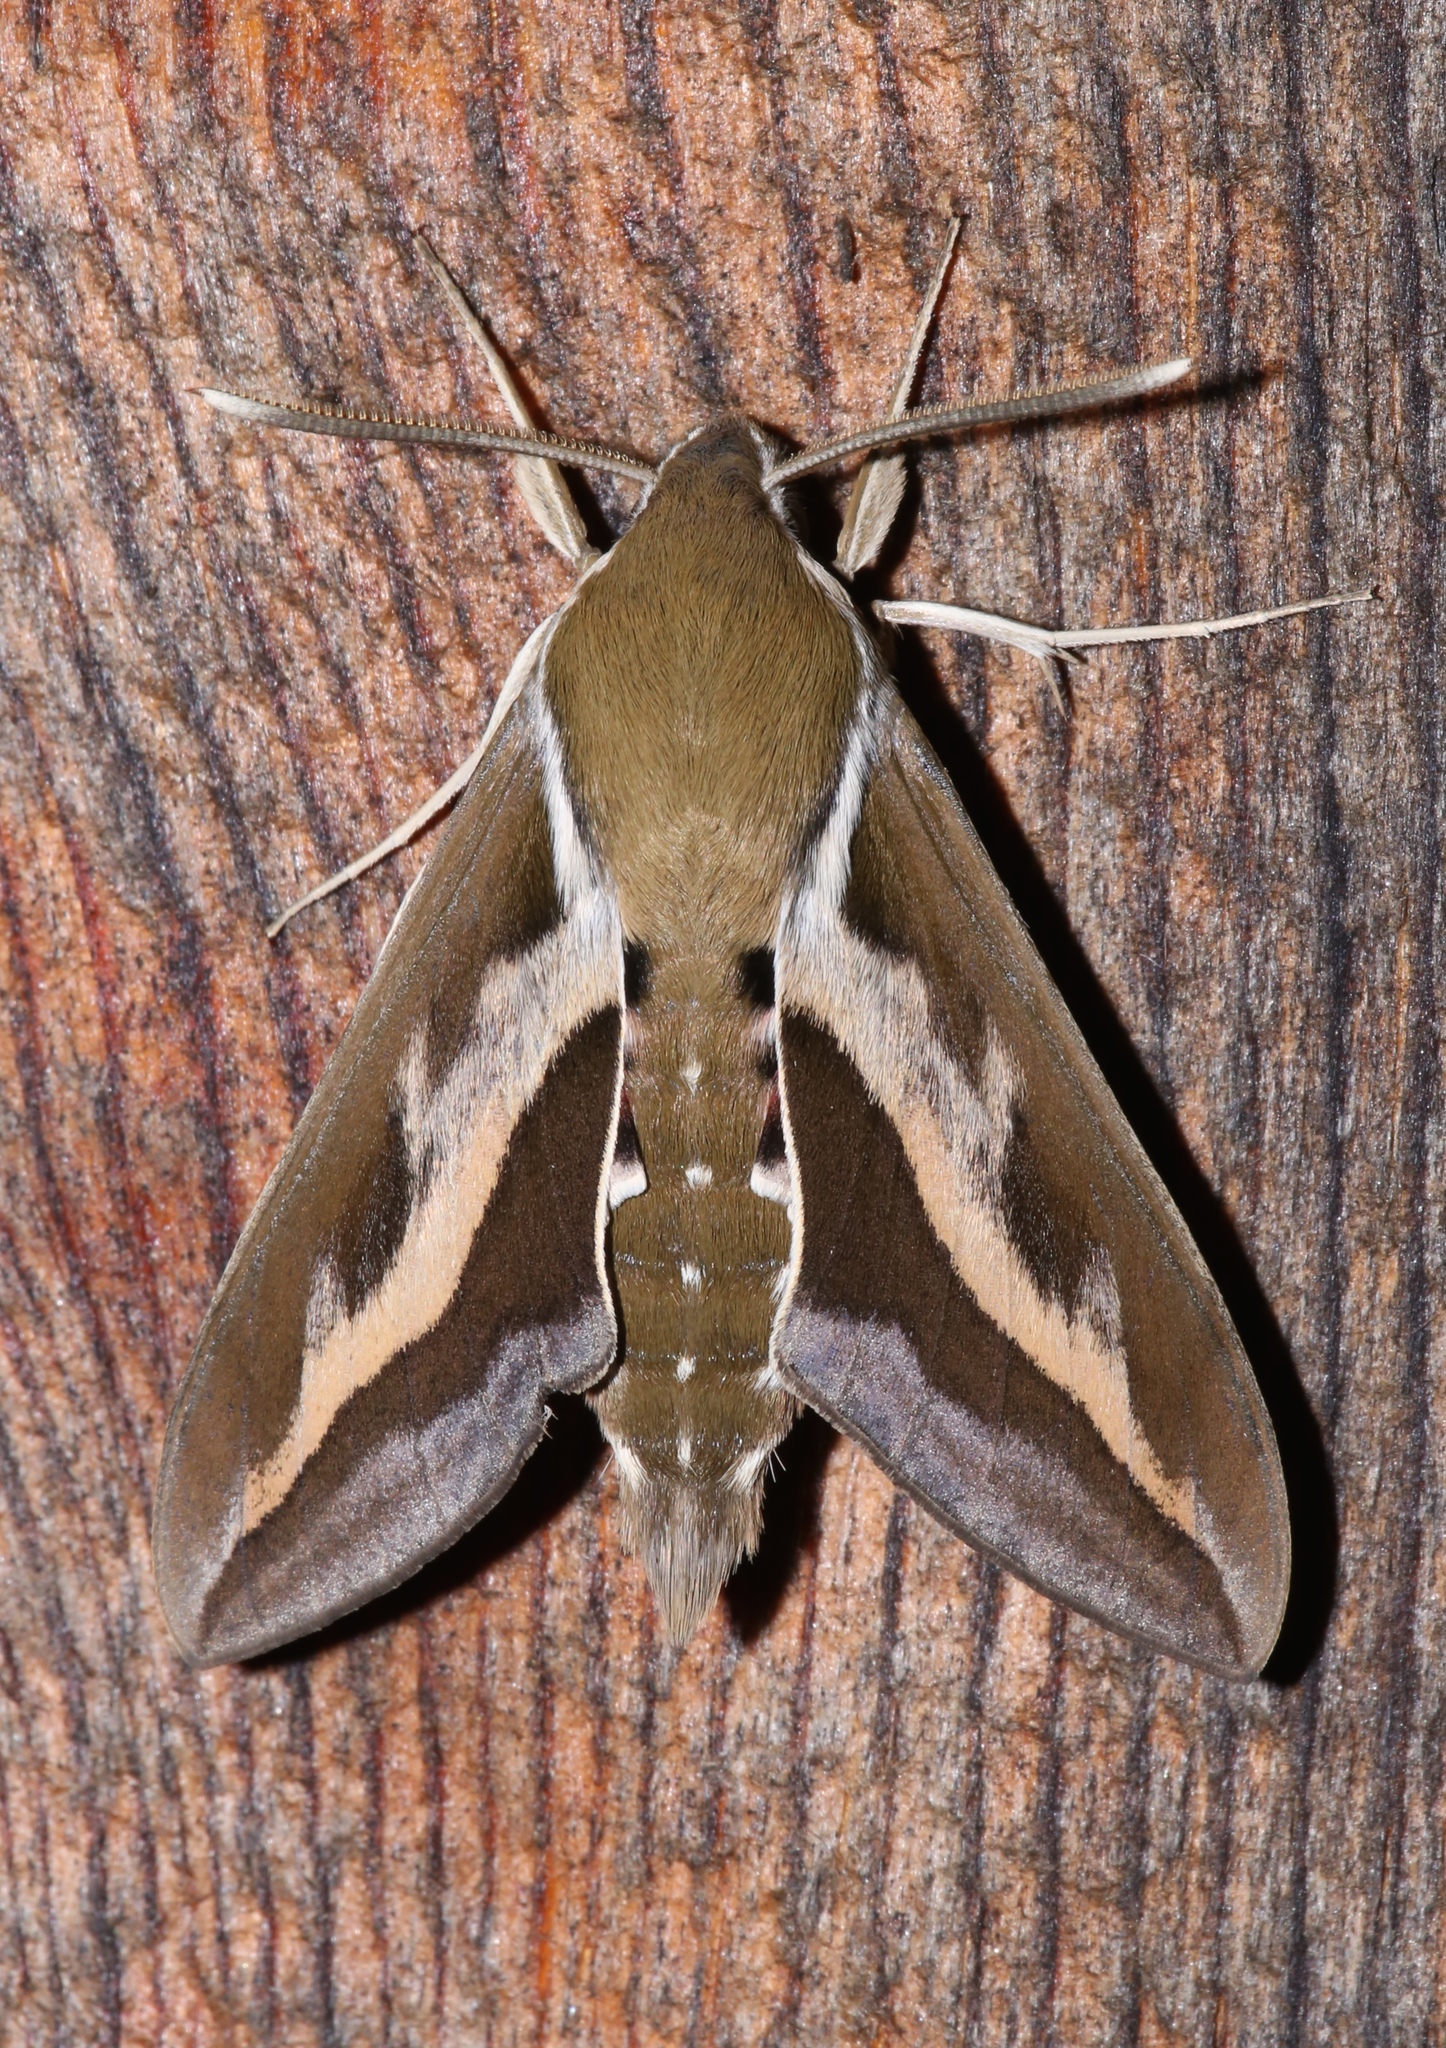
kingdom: Animalia
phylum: Arthropoda
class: Insecta
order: Lepidoptera
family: Sphingidae
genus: Hyles
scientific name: Hyles gallii
